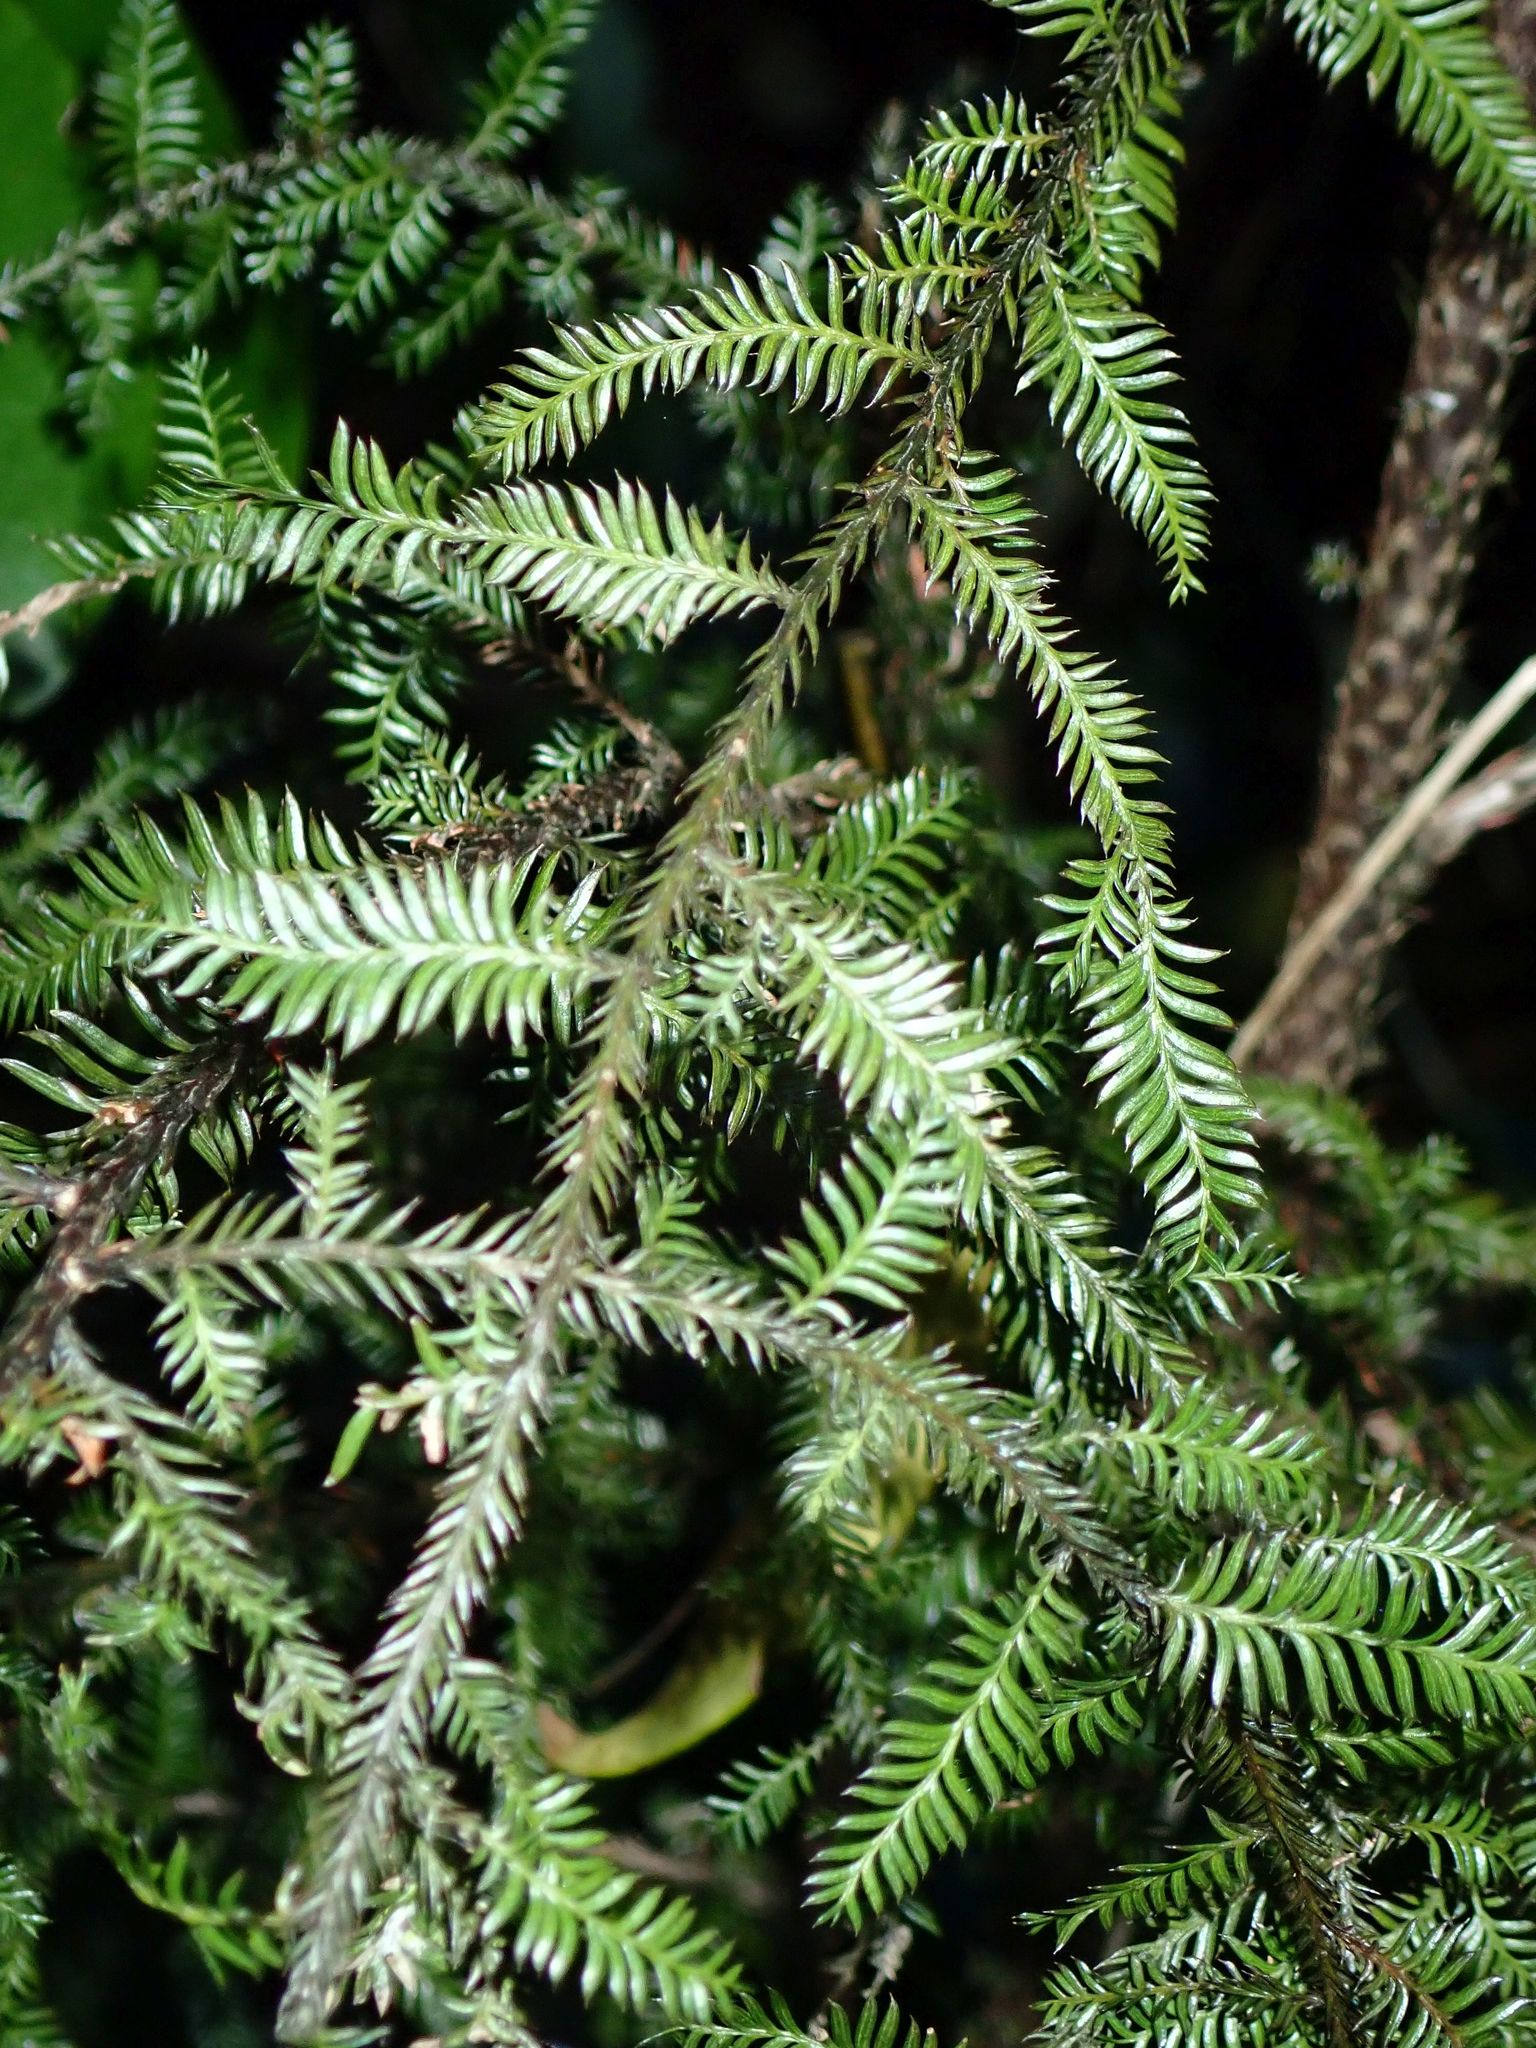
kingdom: Plantae
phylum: Tracheophyta
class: Pinopsida
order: Pinales
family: Podocarpaceae
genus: Dacrycarpus
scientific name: Dacrycarpus dacrydioides
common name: White pine
